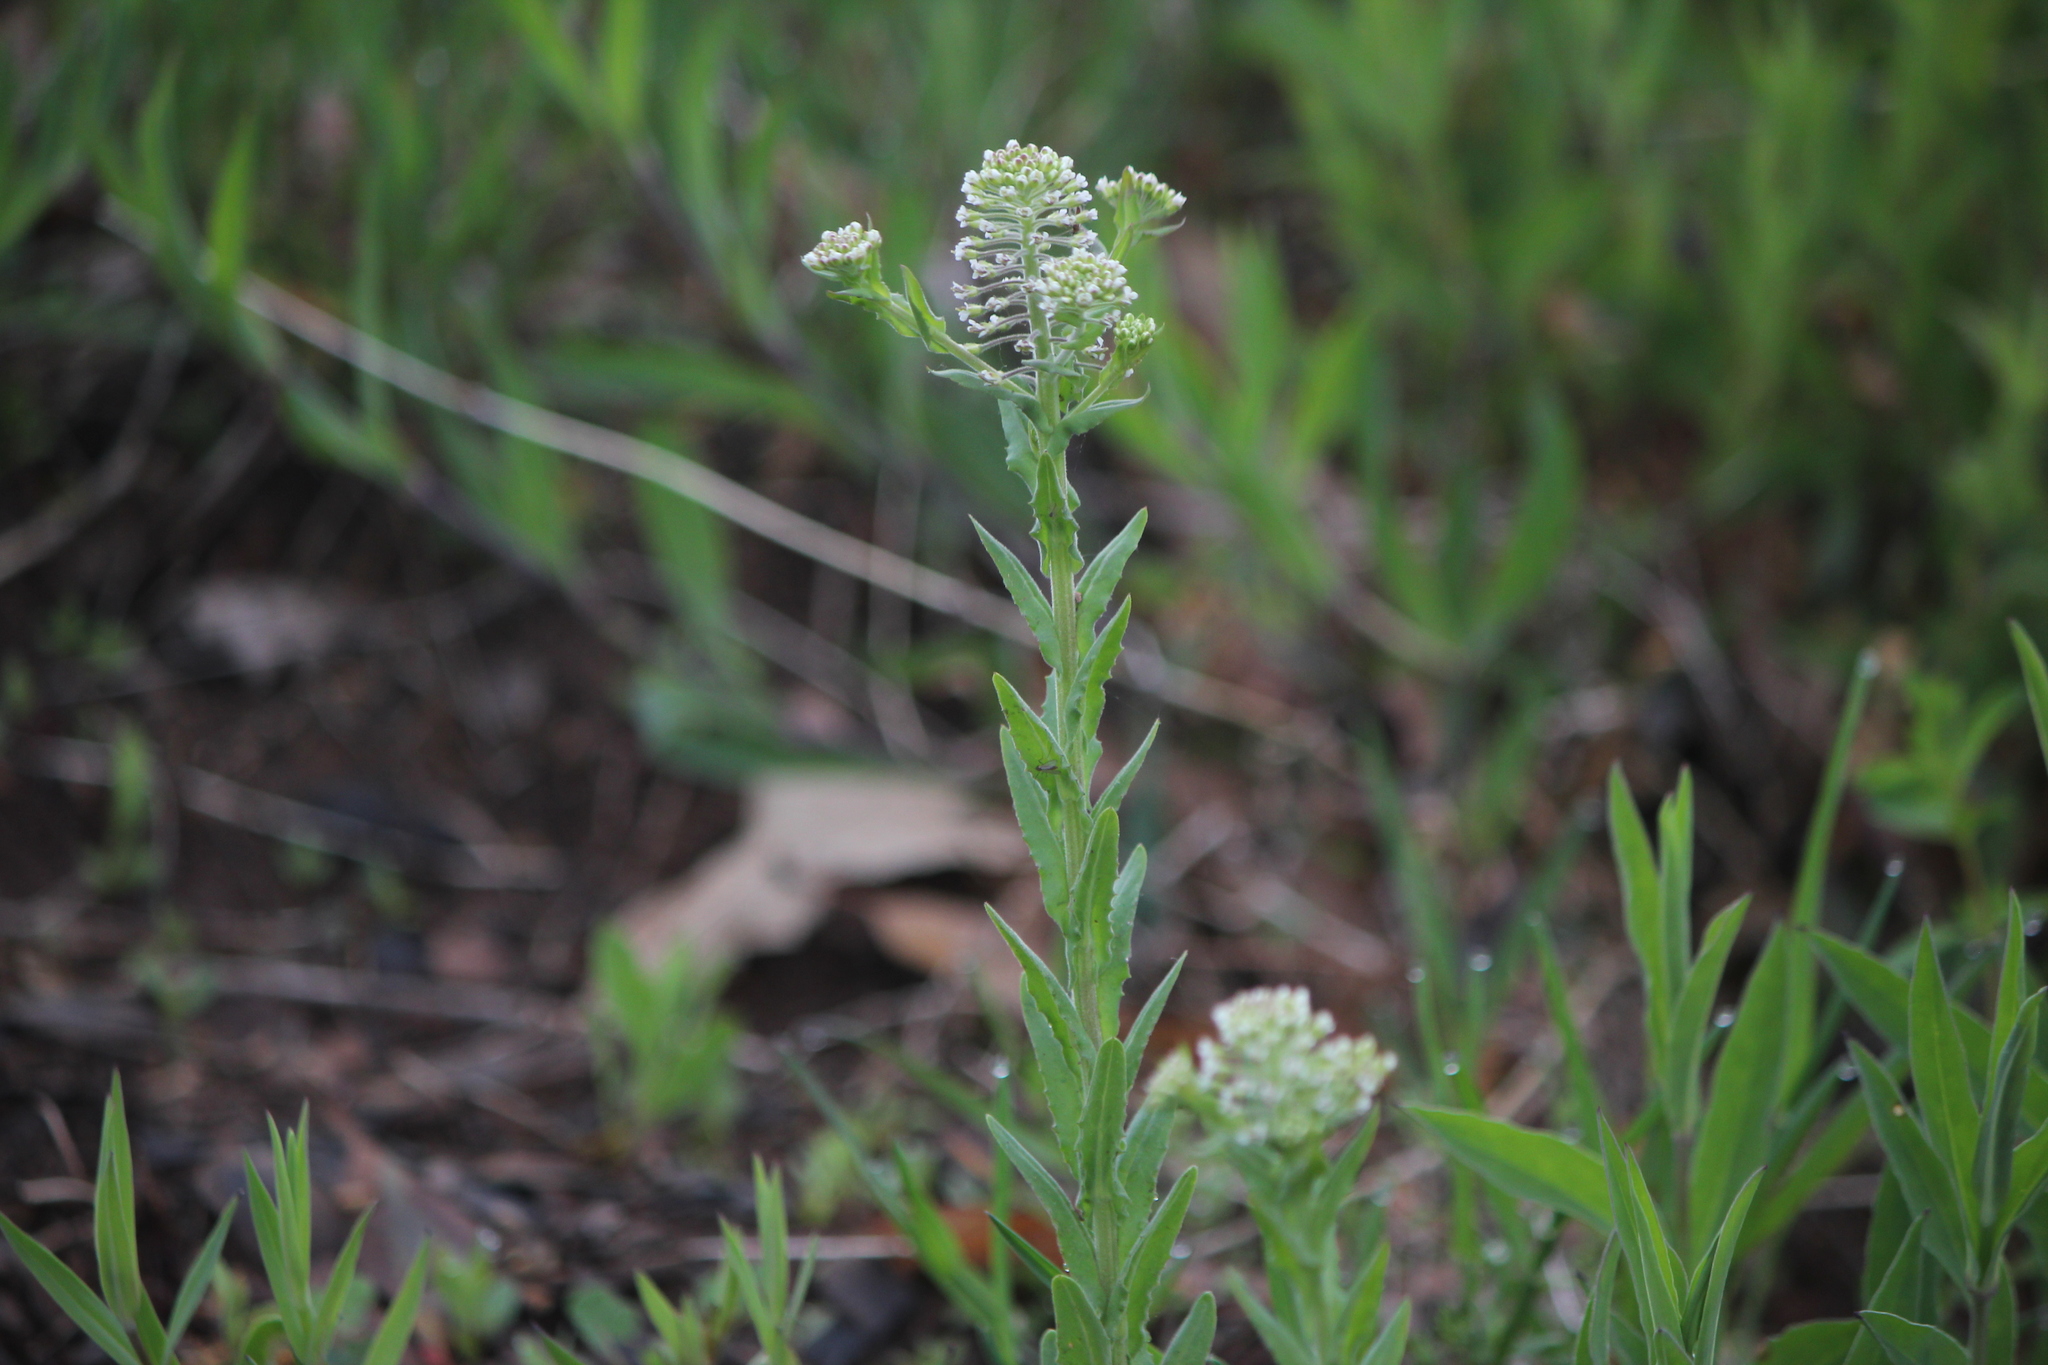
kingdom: Plantae
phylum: Tracheophyta
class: Magnoliopsida
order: Brassicales
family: Brassicaceae
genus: Lepidium
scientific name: Lepidium campestre
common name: Field pepperwort
